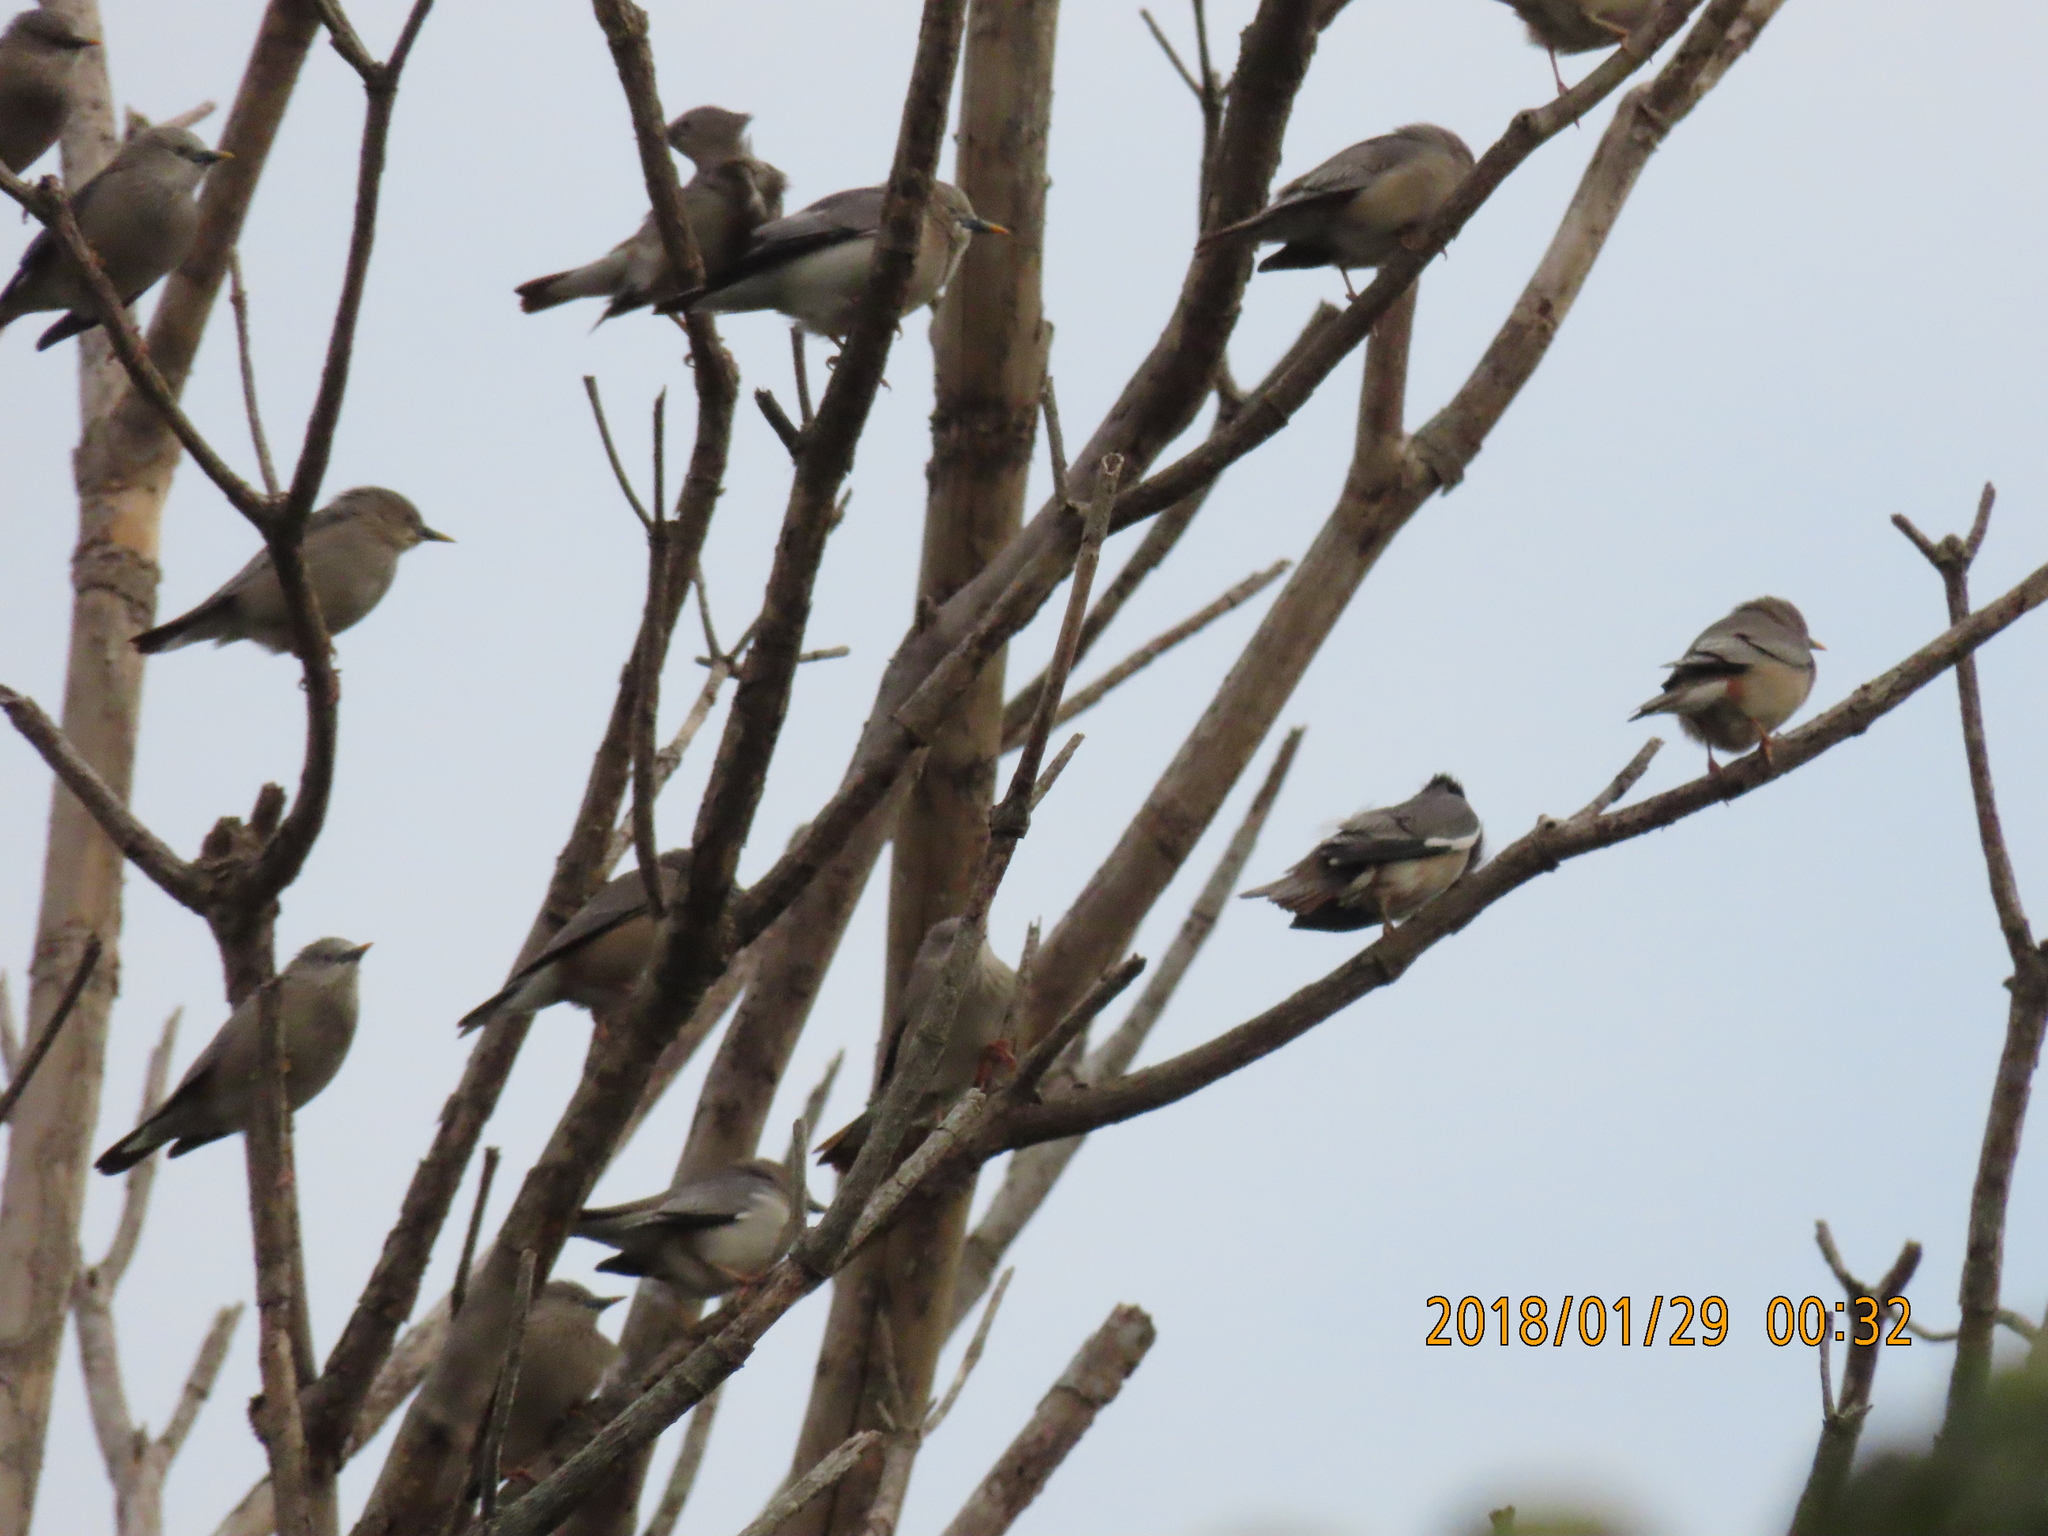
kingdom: Animalia
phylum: Chordata
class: Aves
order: Passeriformes
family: Sturnidae
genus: Sturnia
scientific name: Sturnia malabarica
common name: Chestnut-tailed starling
